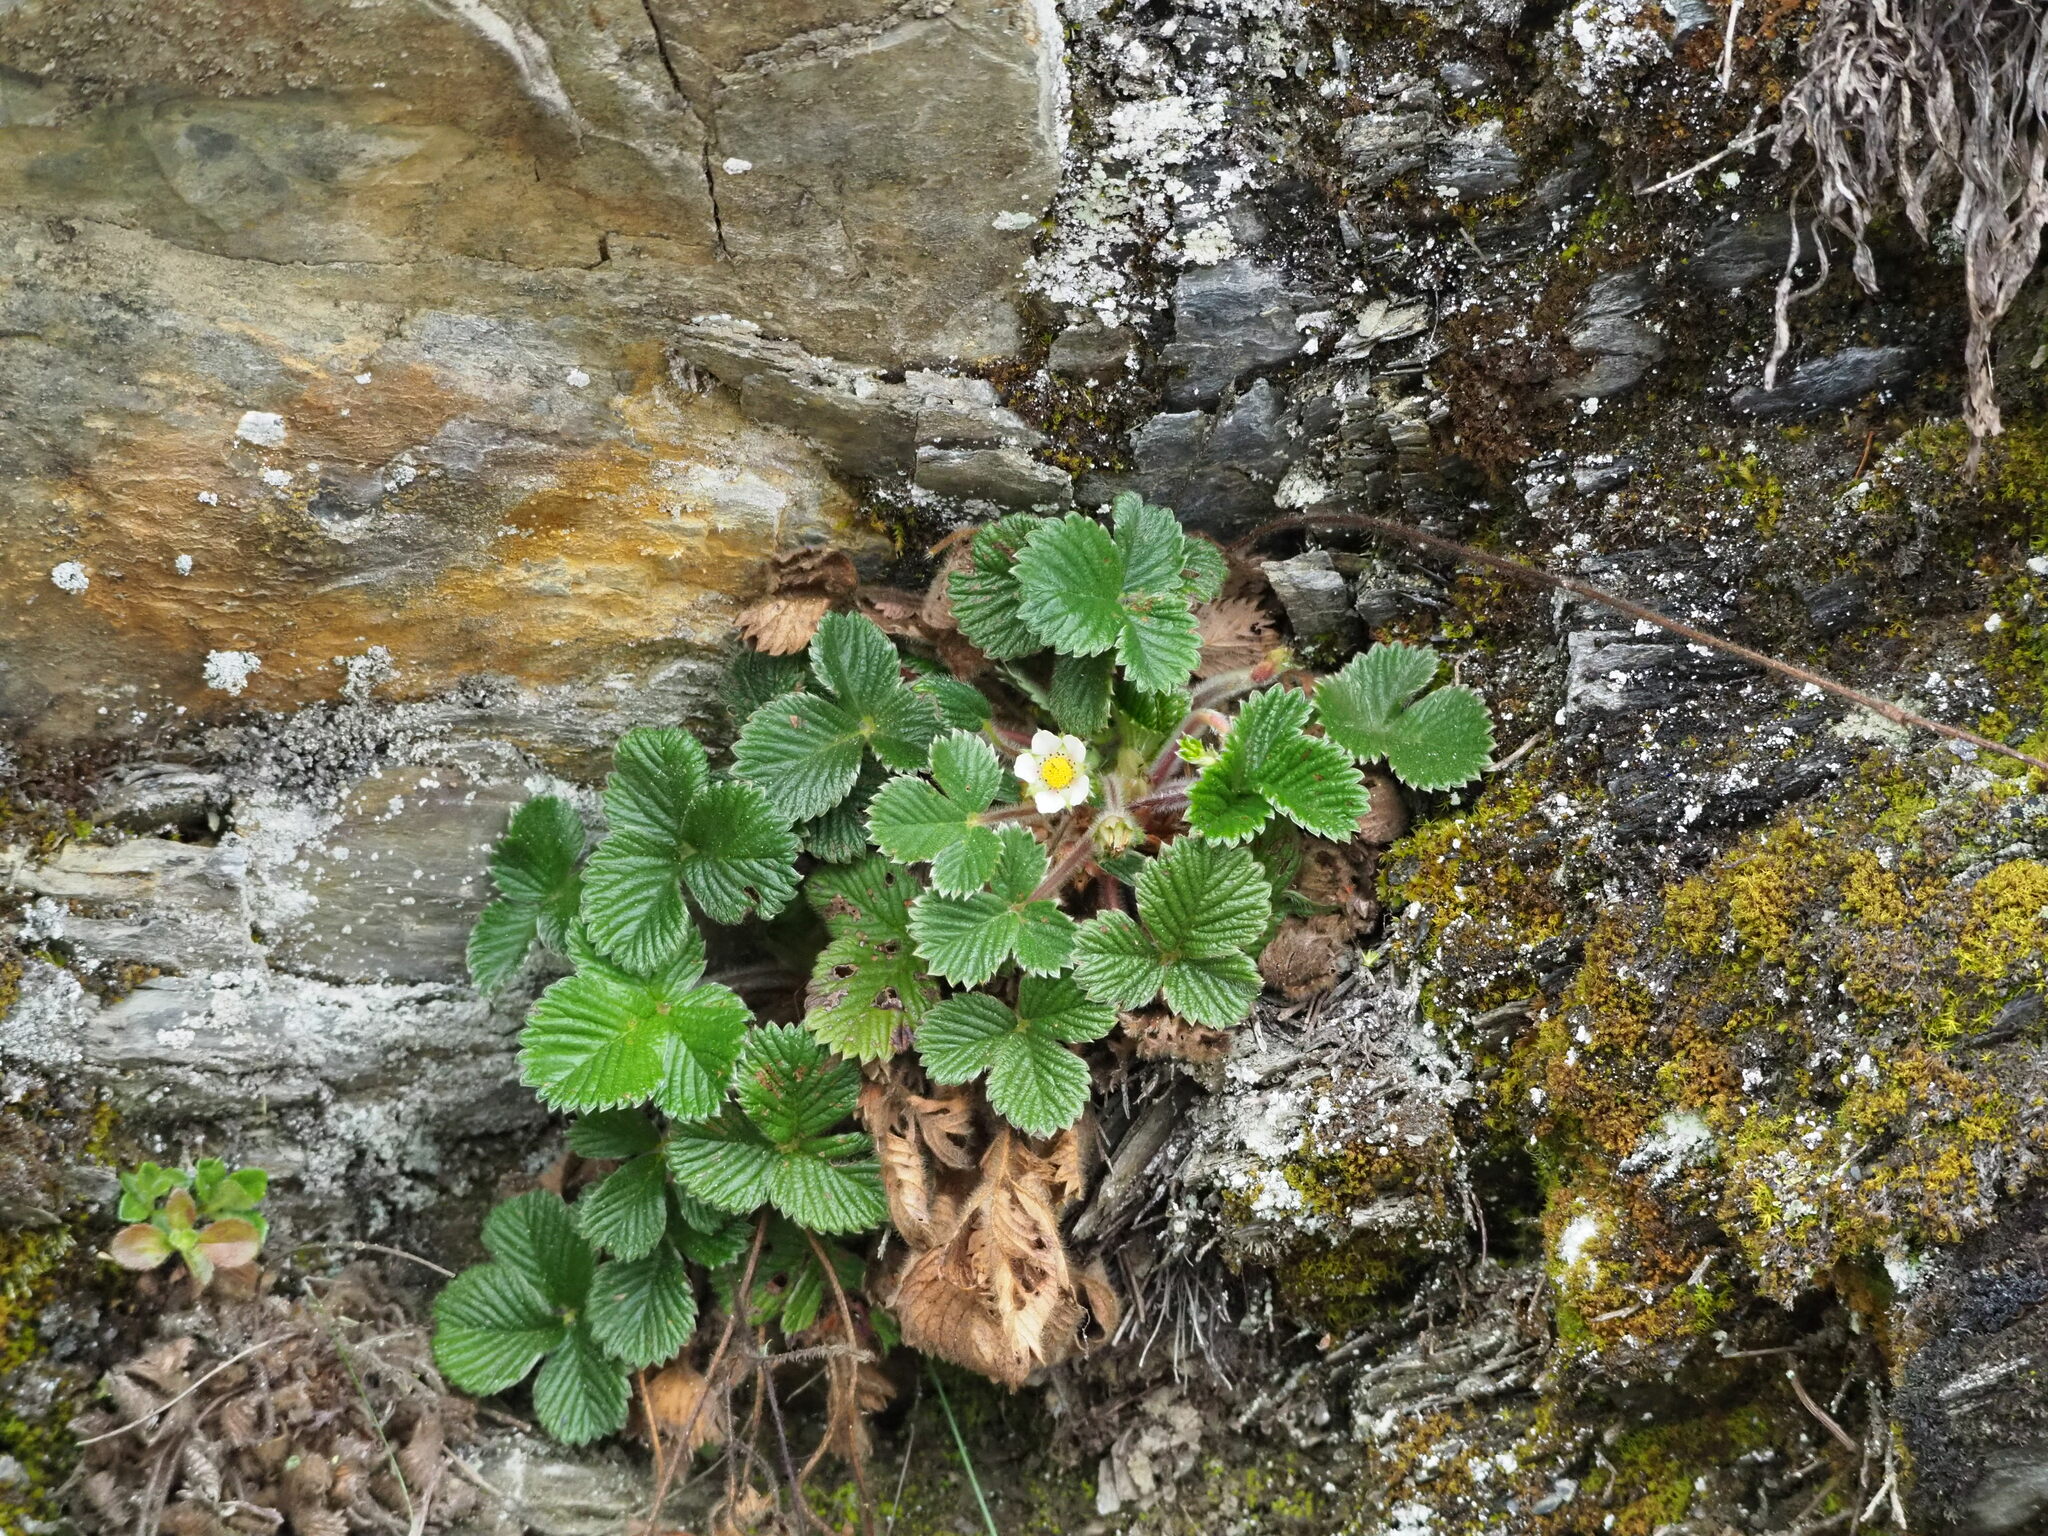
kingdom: Plantae
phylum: Tracheophyta
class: Magnoliopsida
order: Rosales
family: Rosaceae
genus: Fragaria
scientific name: Fragaria nilgerrensis
